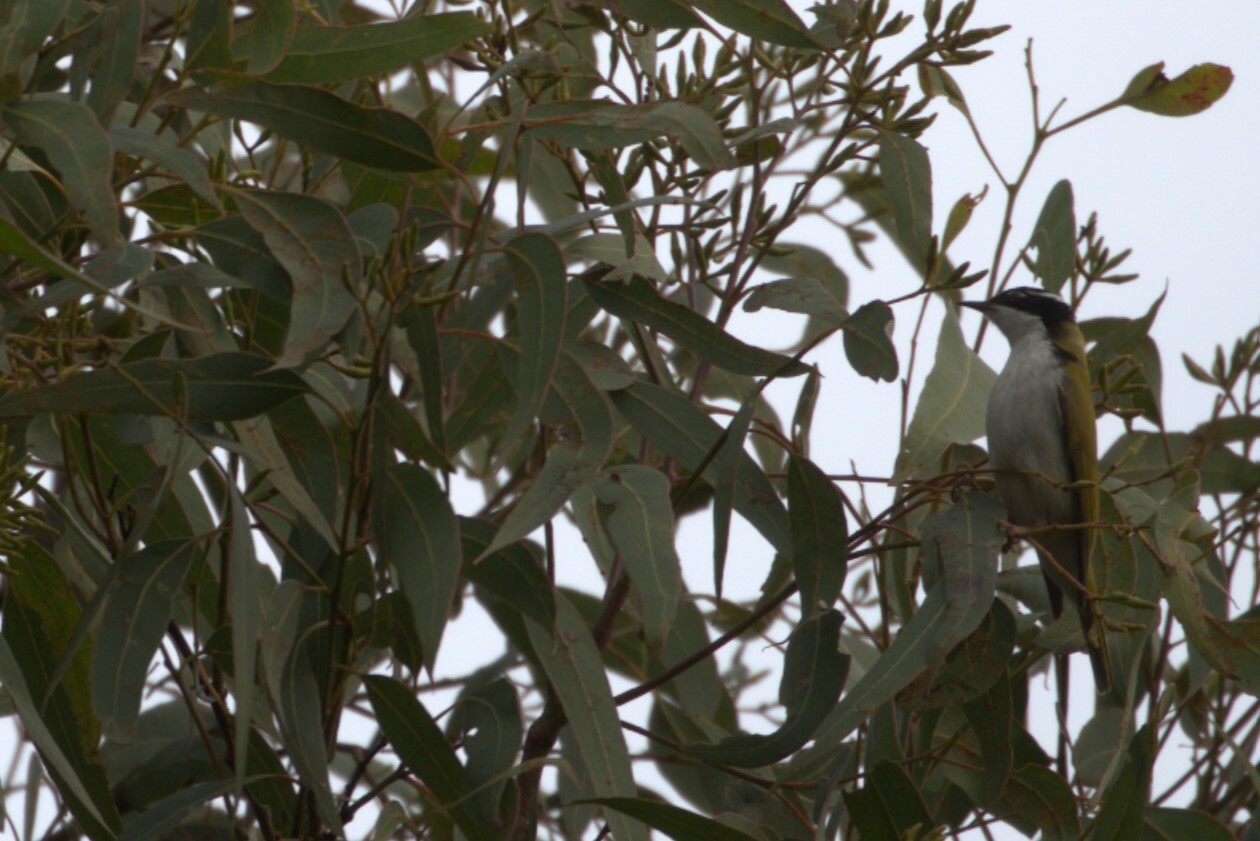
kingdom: Animalia
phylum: Chordata
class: Aves
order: Passeriformes
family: Meliphagidae
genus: Melithreptus
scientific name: Melithreptus albogularis
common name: White-throated honeyeater
